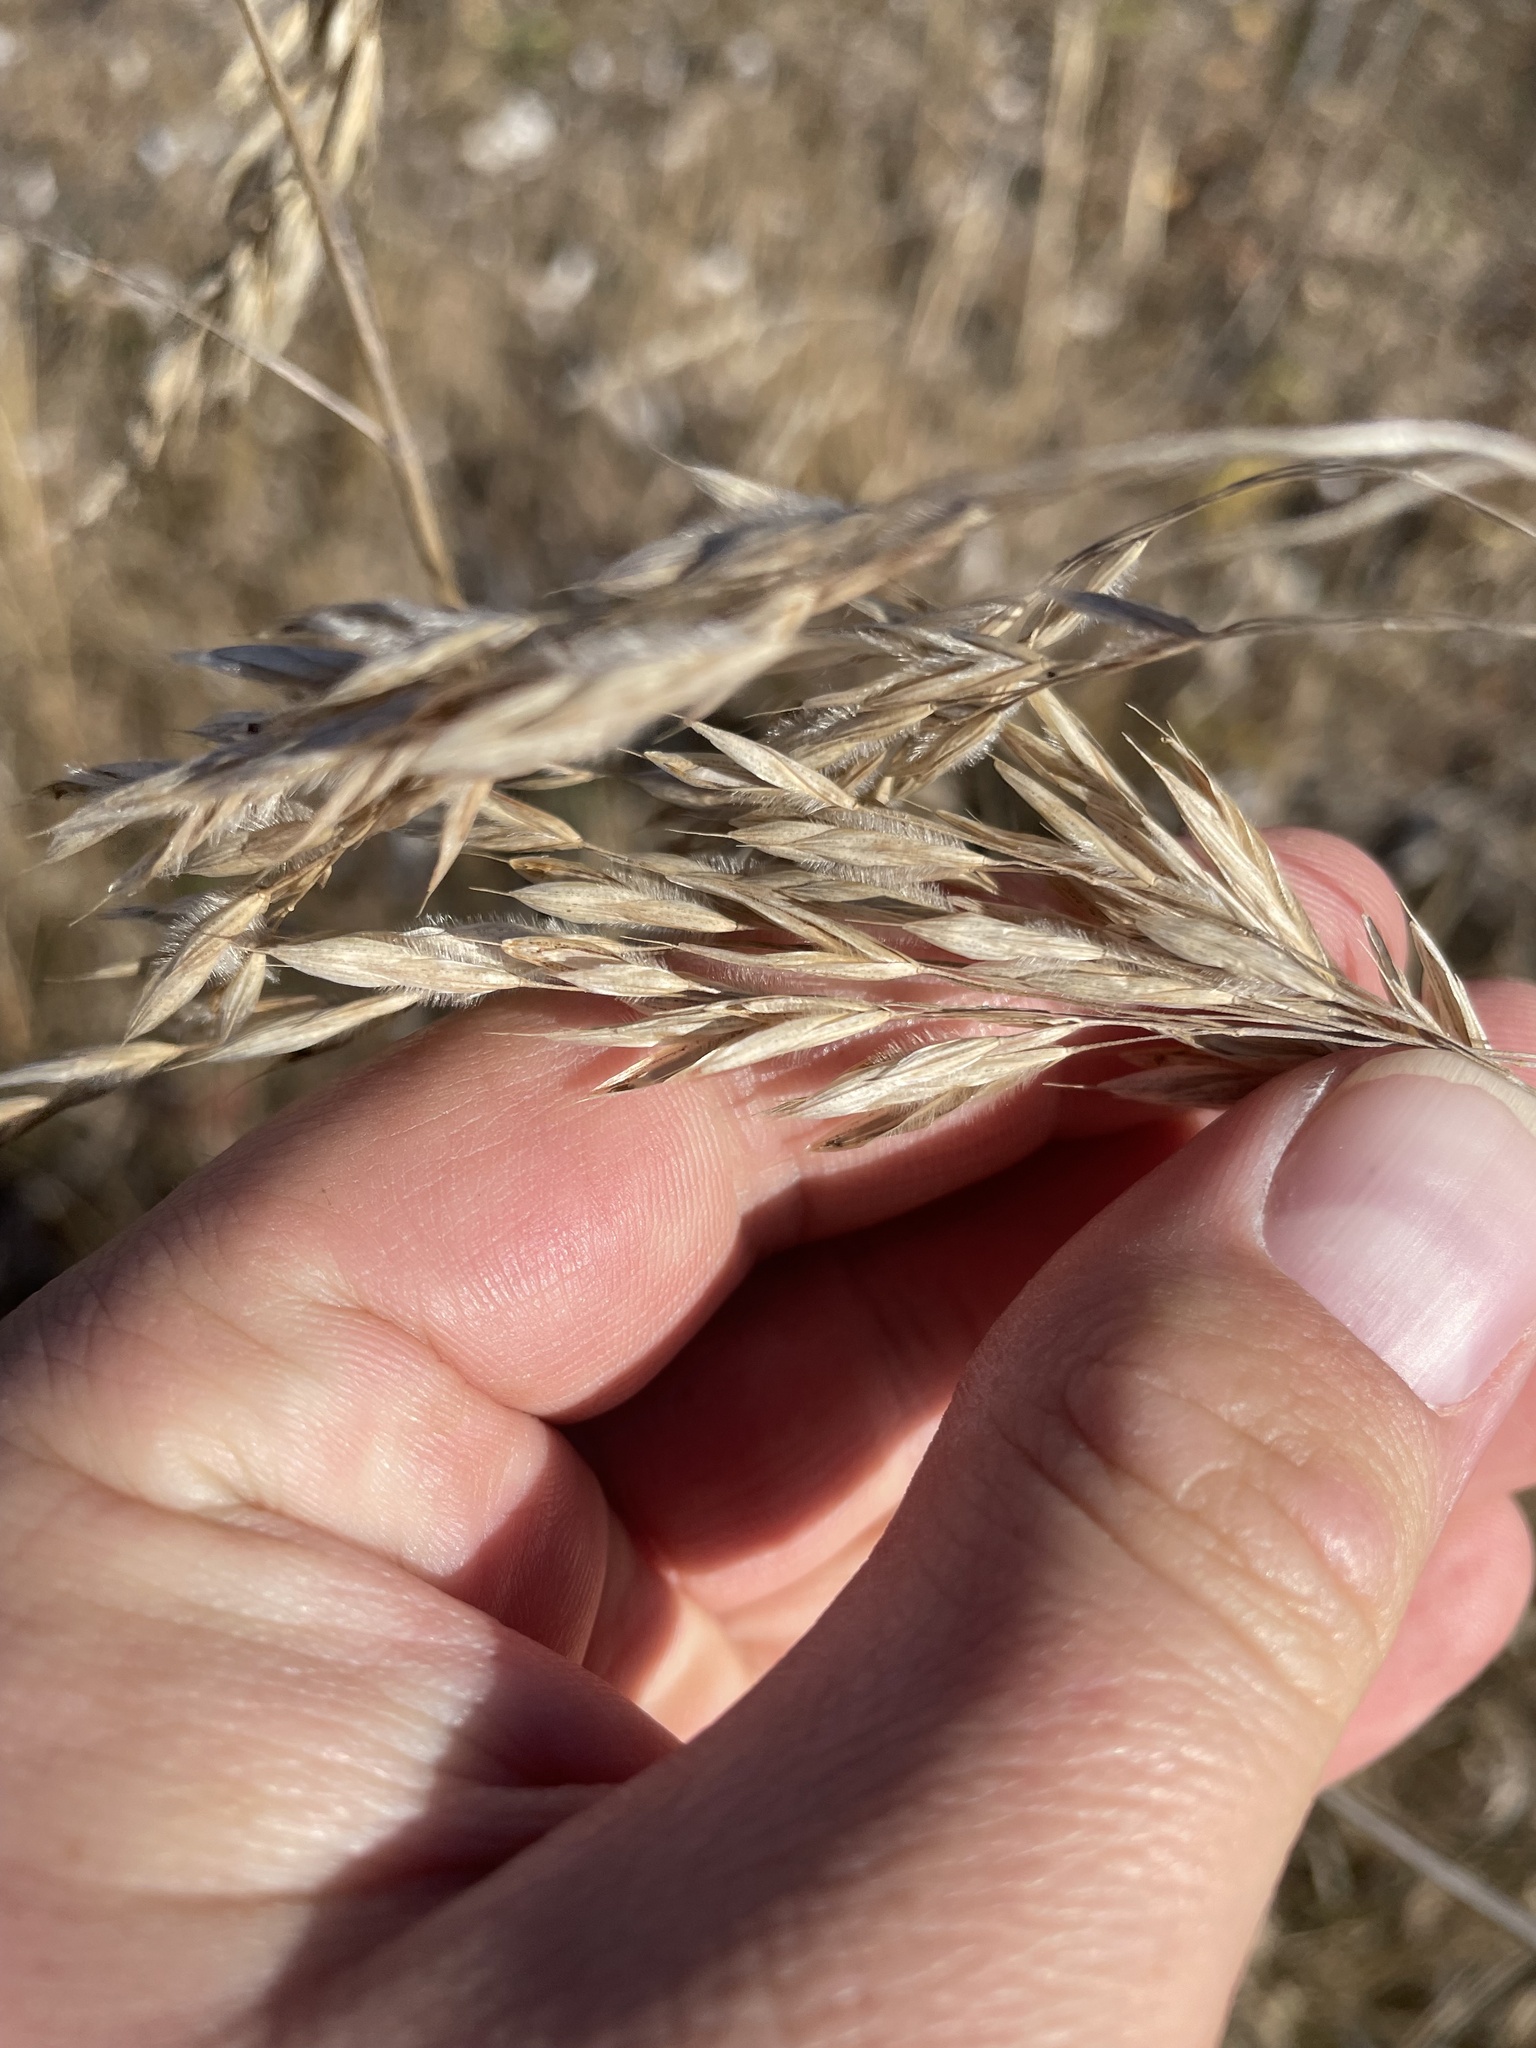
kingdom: Plantae
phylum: Tracheophyta
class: Liliopsida
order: Poales
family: Poaceae
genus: Bromus
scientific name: Bromus ciliatus
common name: Fringe brome
